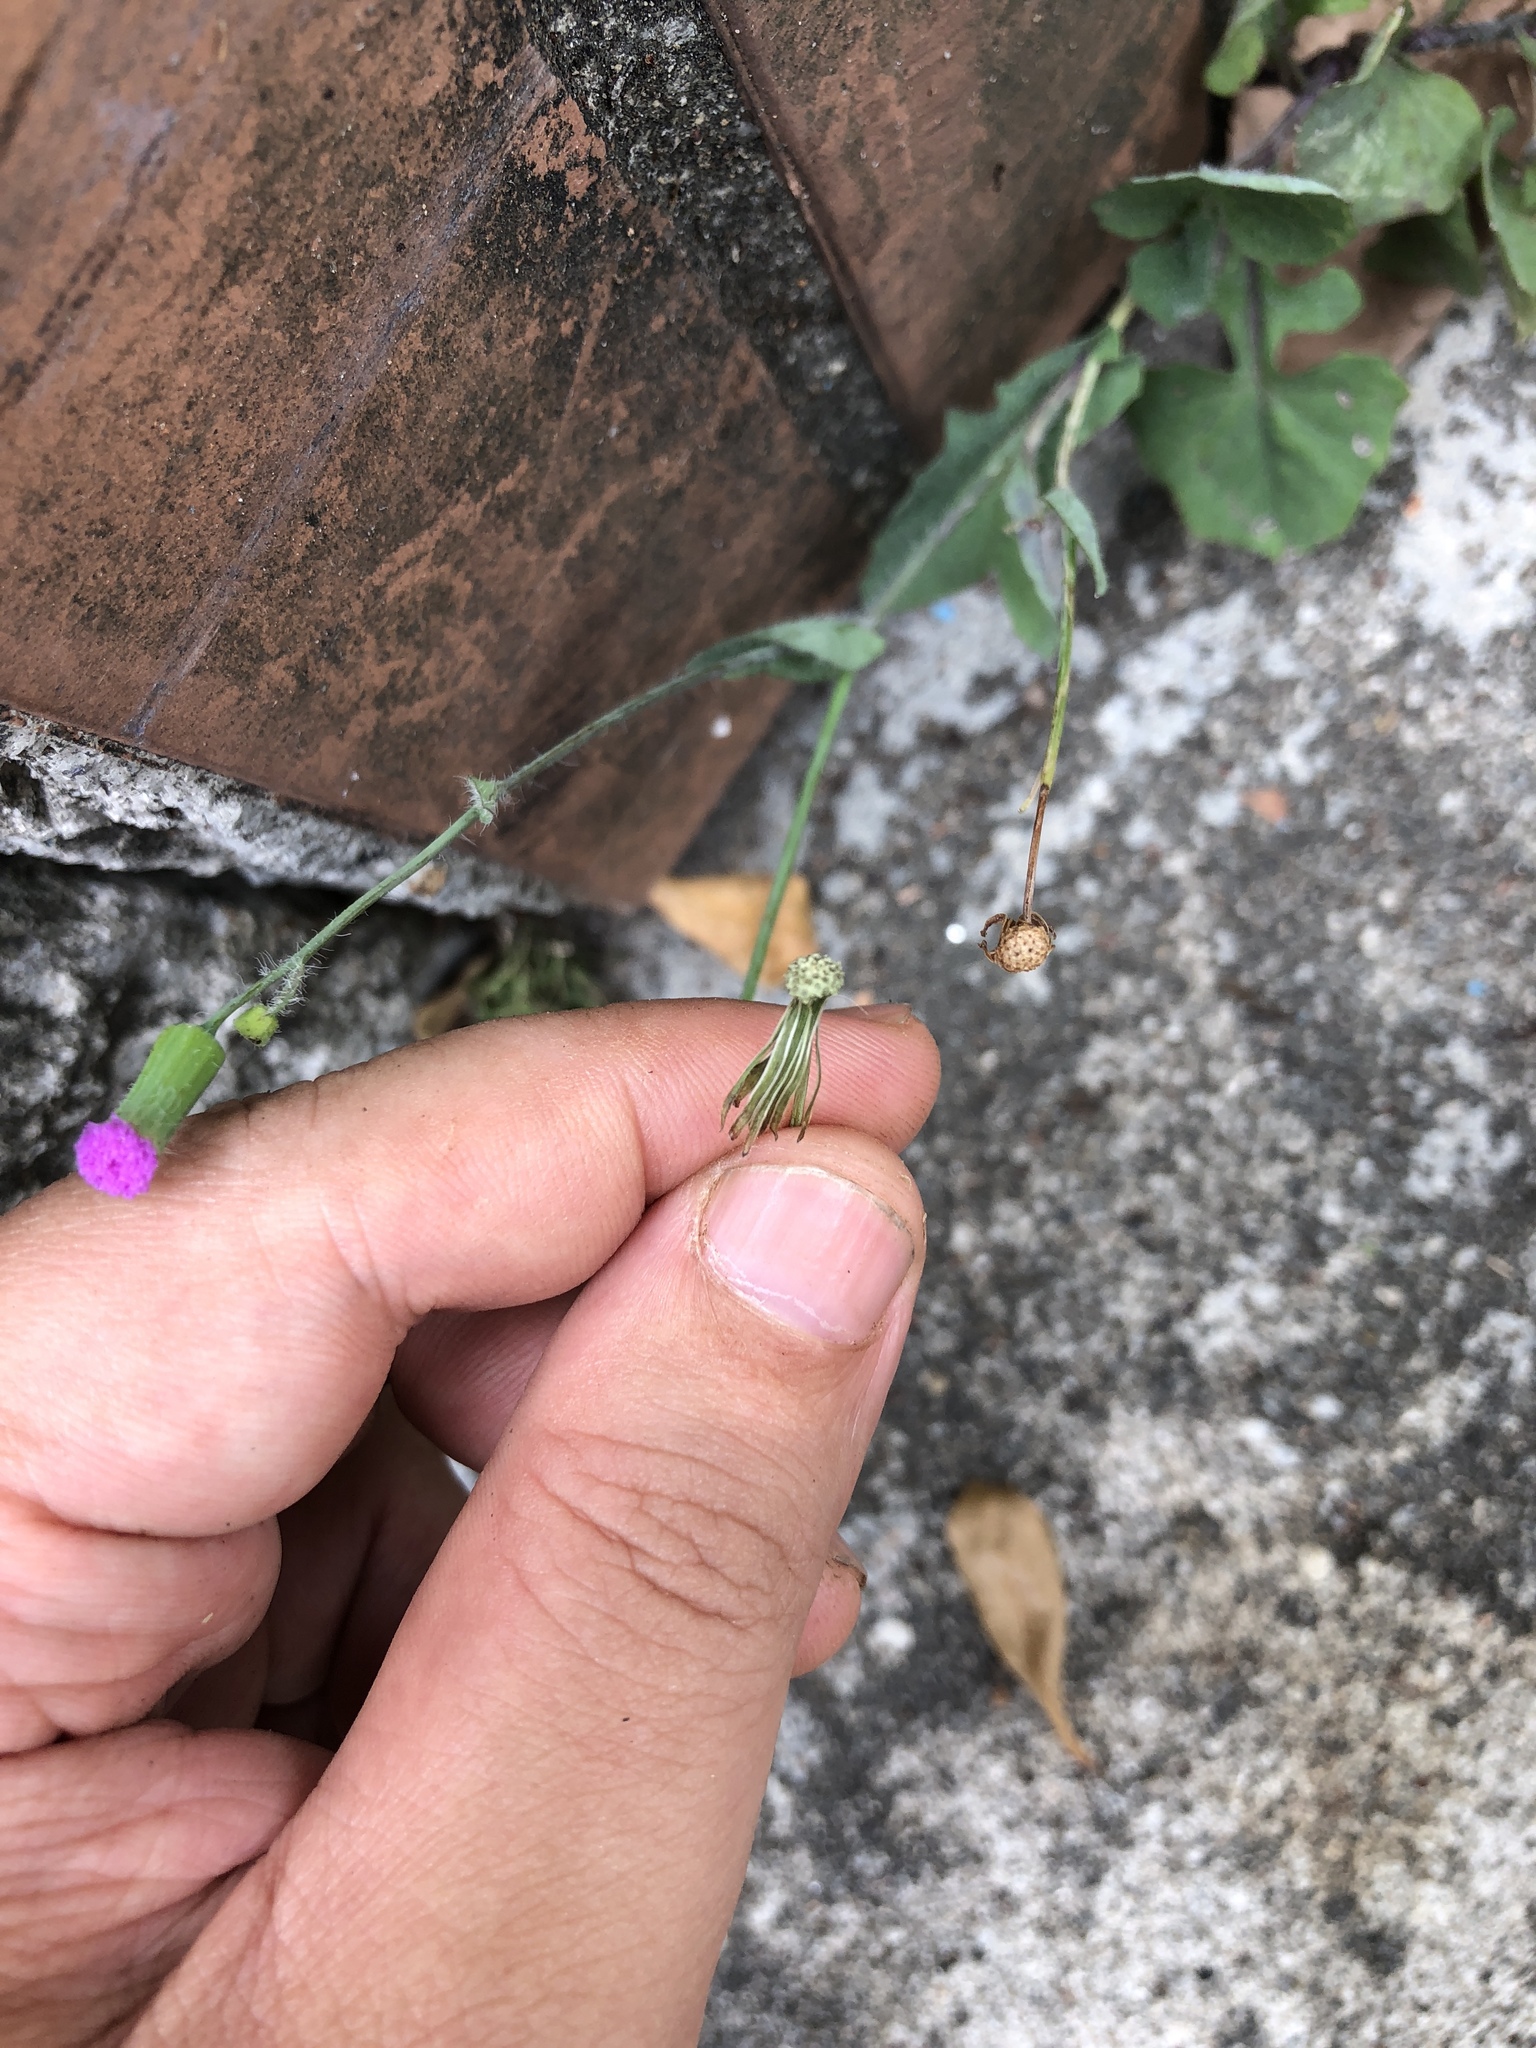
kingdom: Plantae
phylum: Tracheophyta
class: Magnoliopsida
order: Asterales
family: Asteraceae
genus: Emilia
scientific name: Emilia javanica
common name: Tassel-flower
